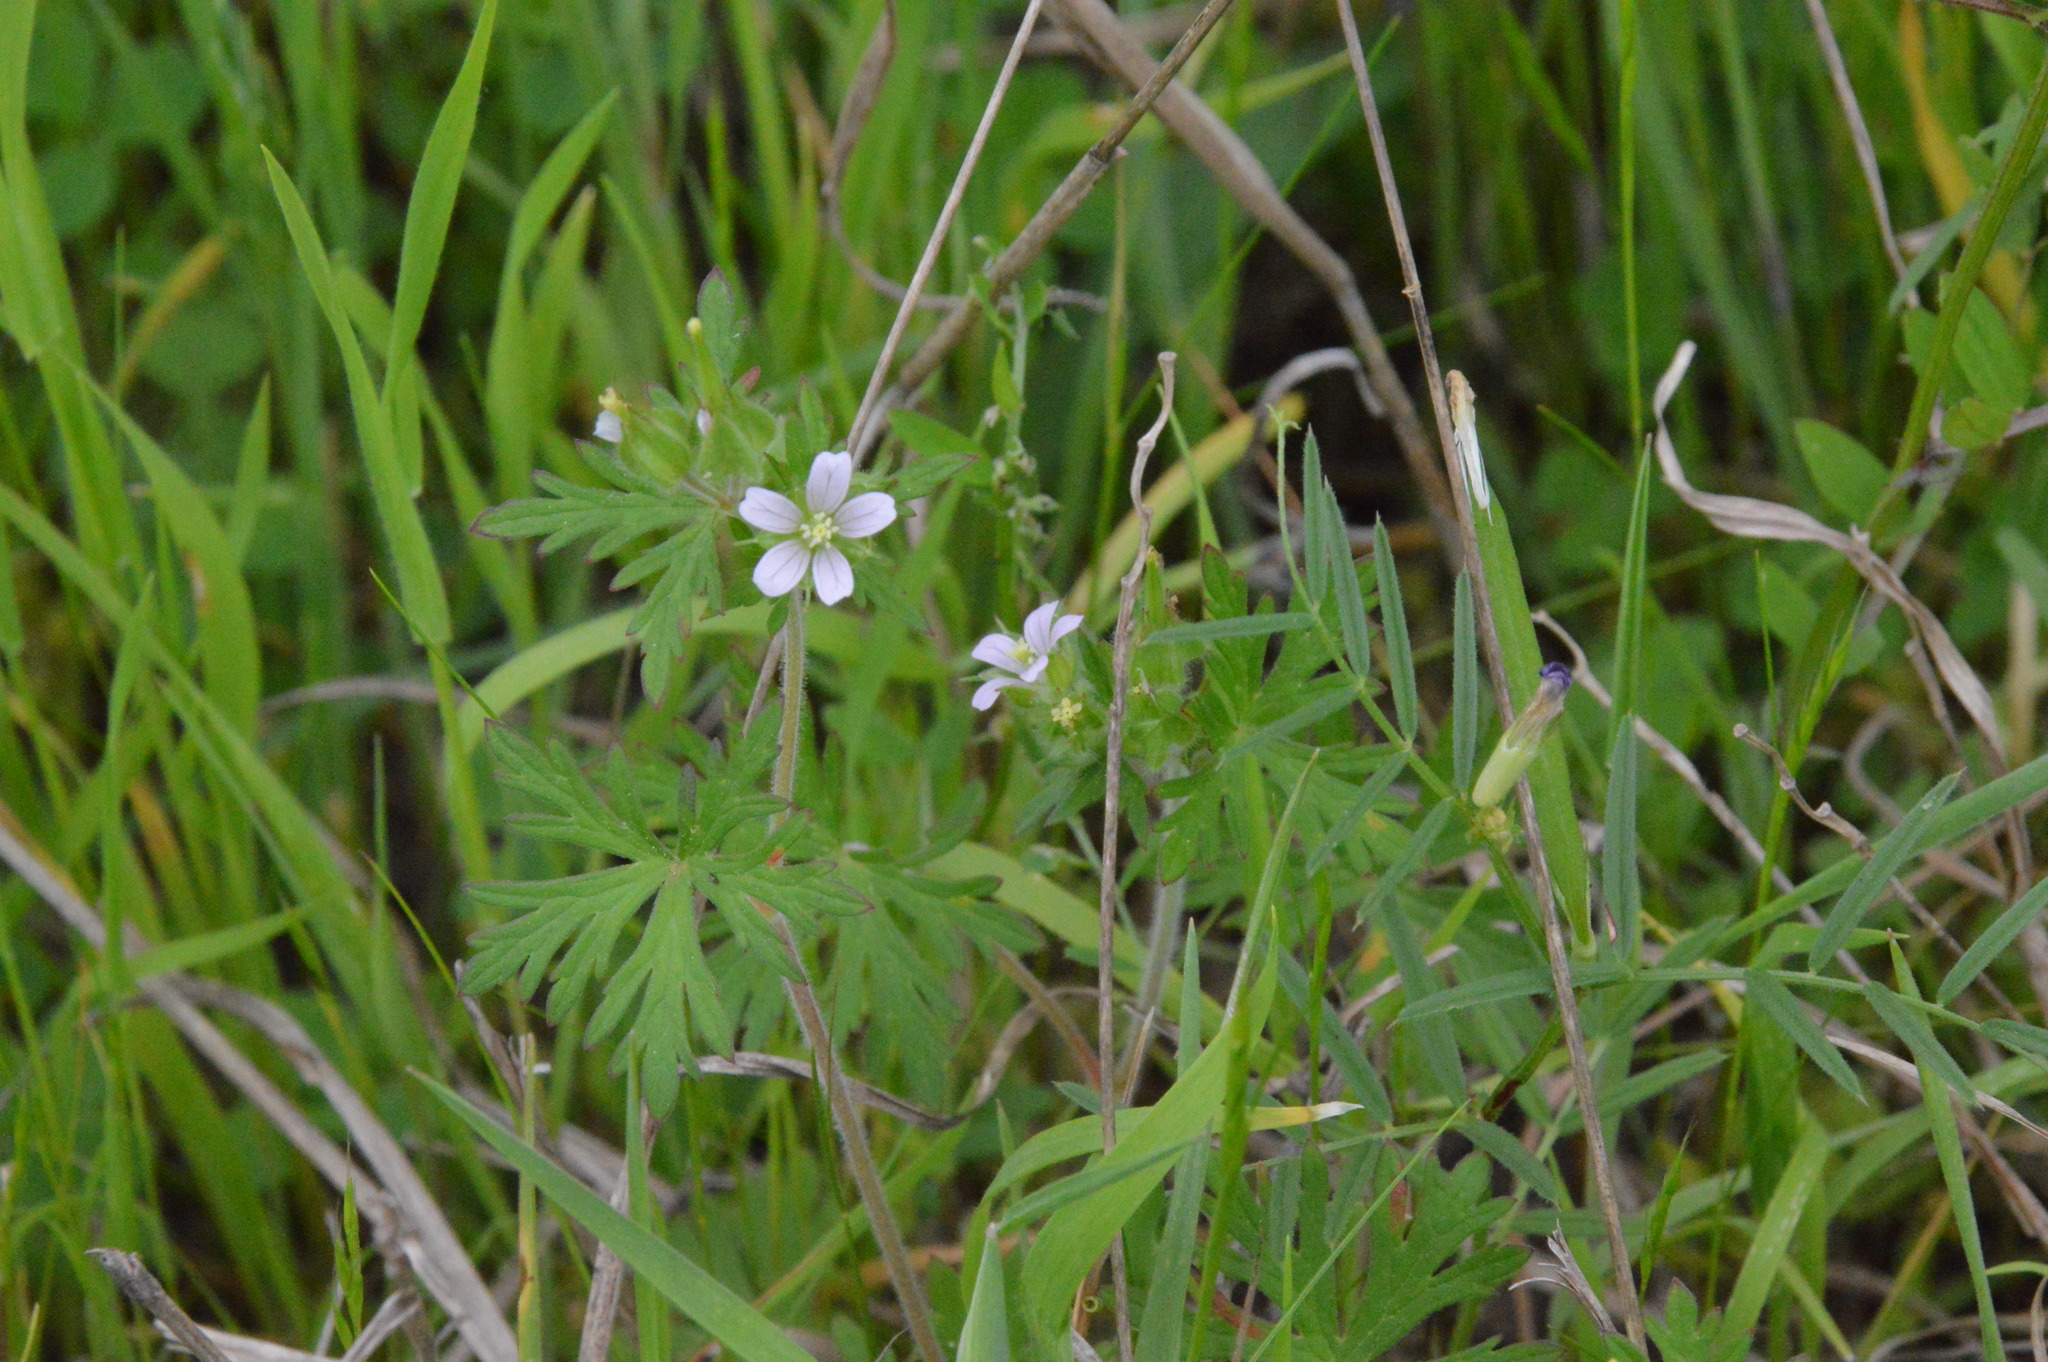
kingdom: Plantae
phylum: Tracheophyta
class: Magnoliopsida
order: Geraniales
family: Geraniaceae
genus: Geranium
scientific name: Geranium carolinianum
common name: Carolina crane's-bill
